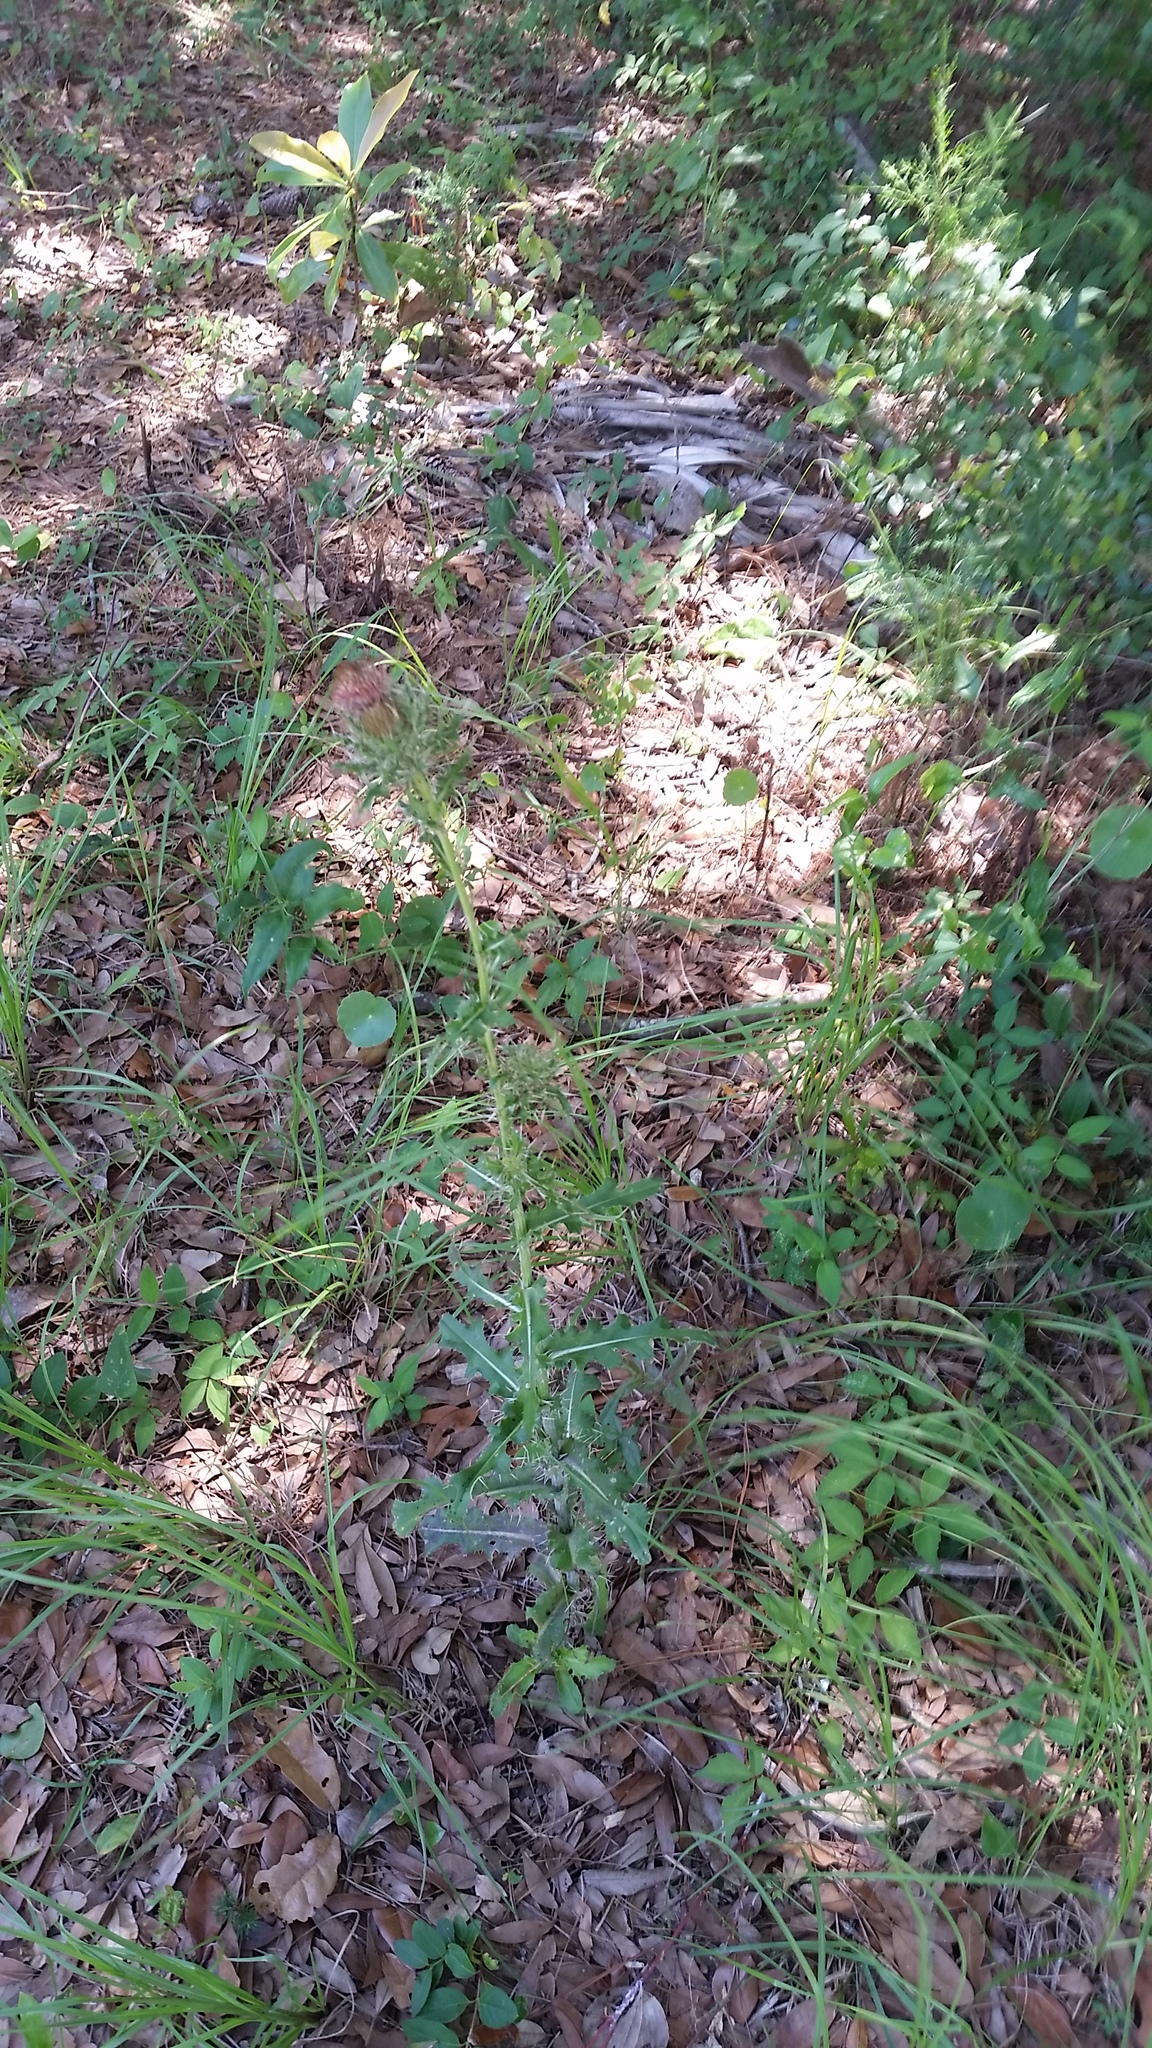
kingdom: Plantae
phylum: Tracheophyta
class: Magnoliopsida
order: Asterales
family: Asteraceae
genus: Cirsium
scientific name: Cirsium horridulum
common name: Bristly thistle
